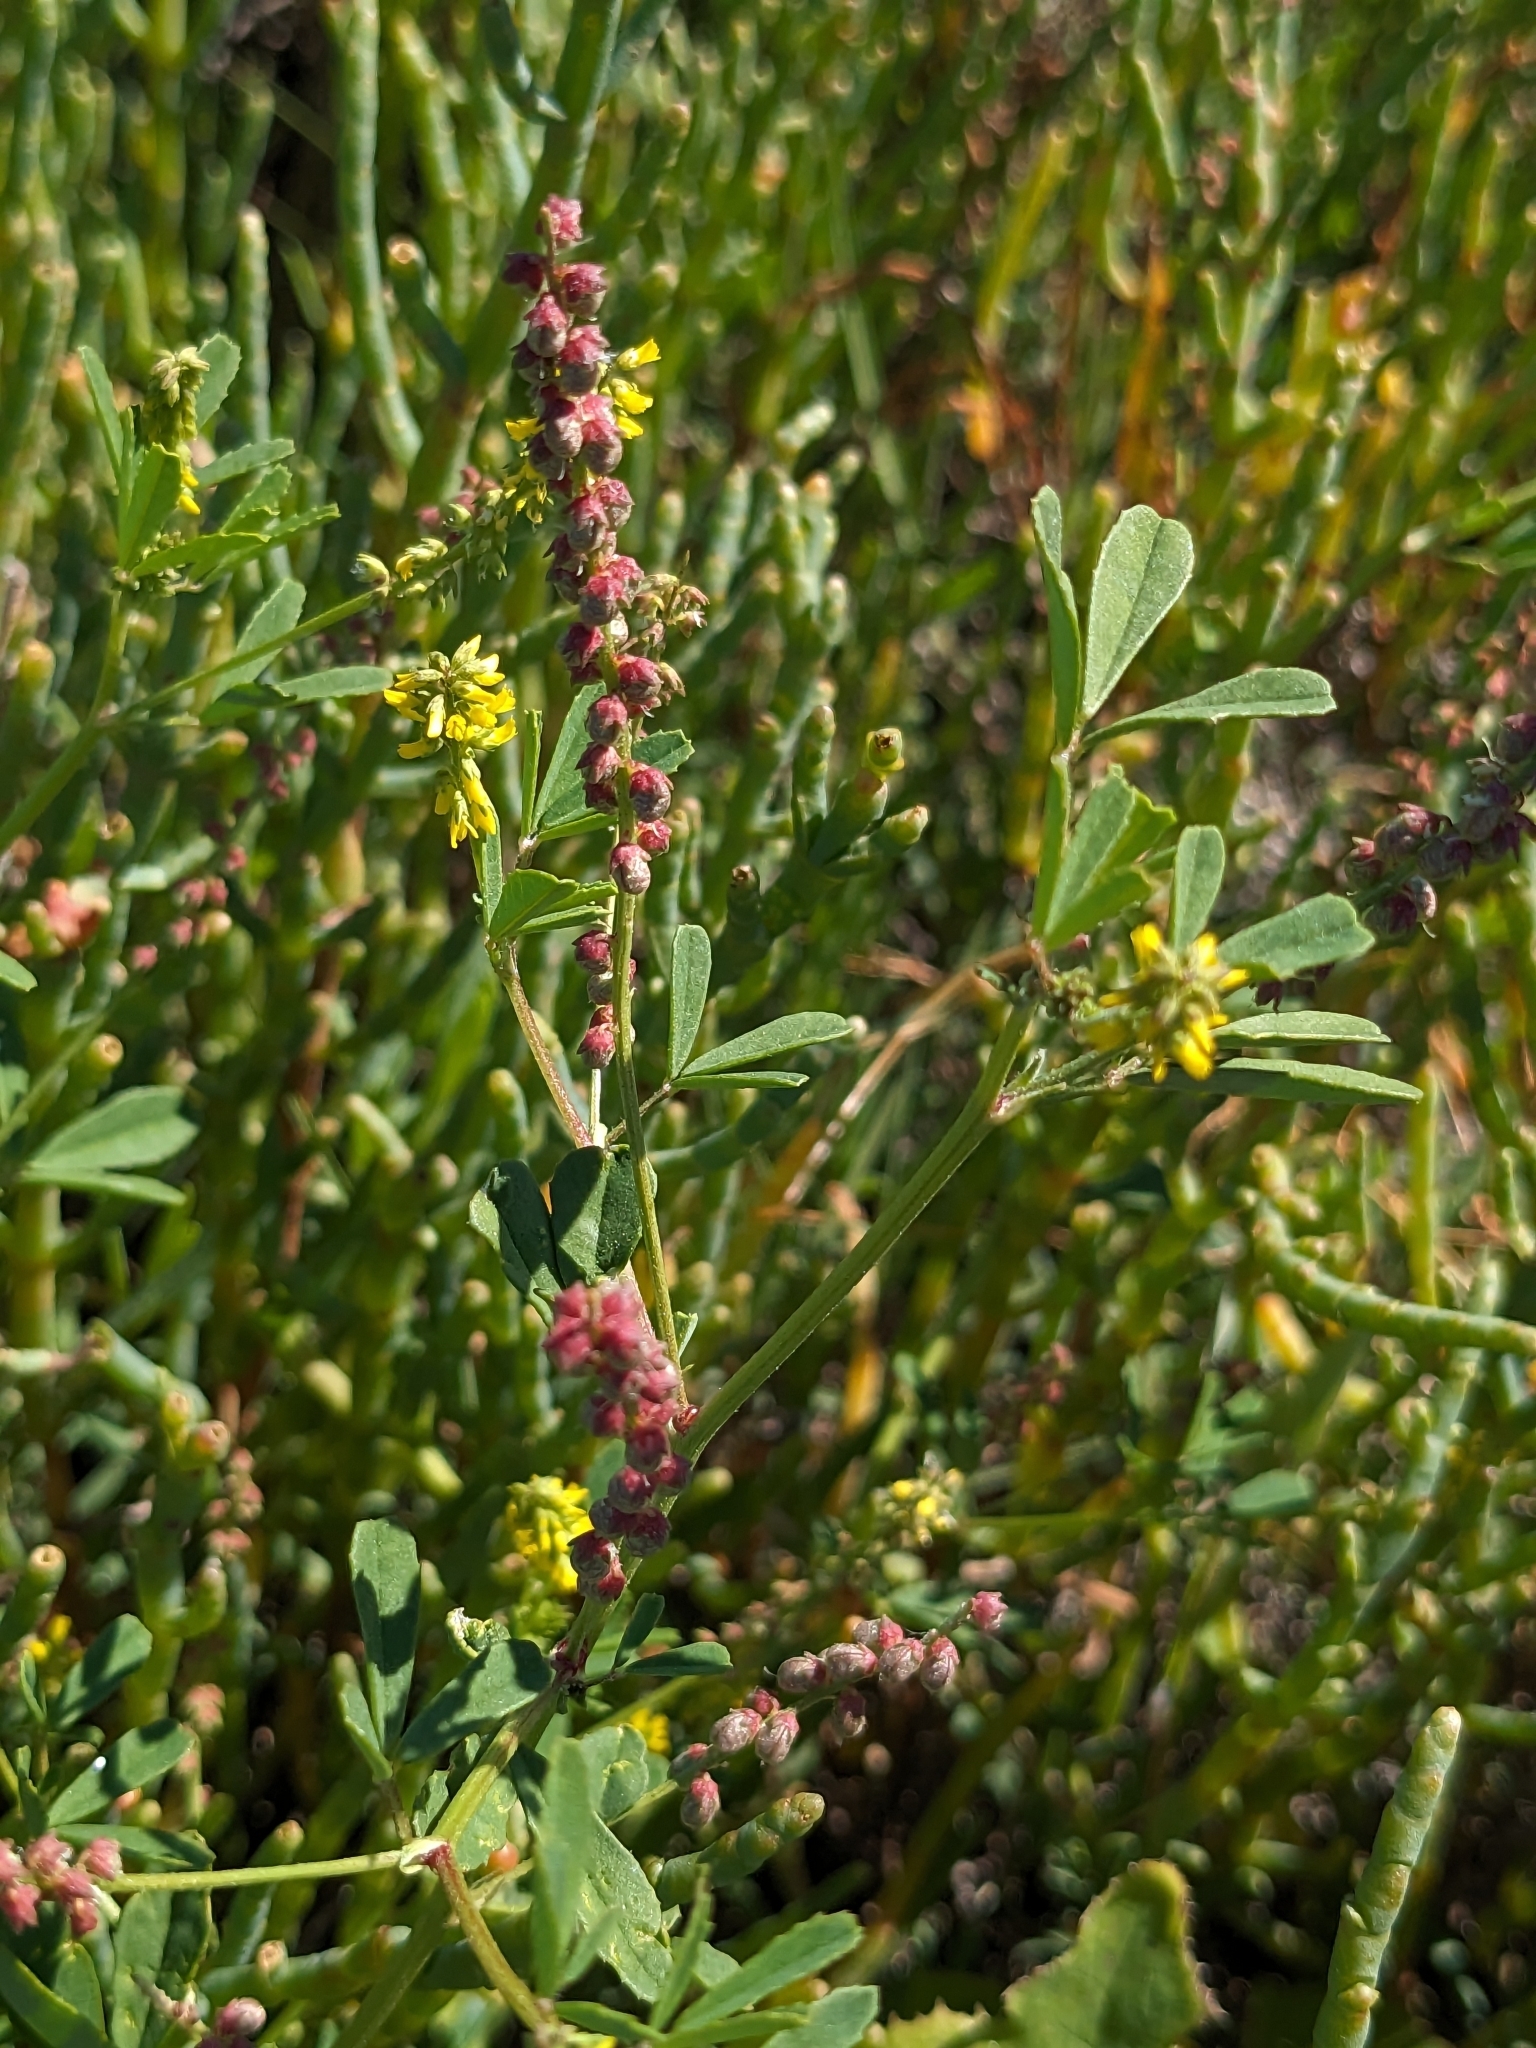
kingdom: Plantae
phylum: Tracheophyta
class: Magnoliopsida
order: Fabales
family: Fabaceae
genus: Melilotus
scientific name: Melilotus indicus
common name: Small melilot
